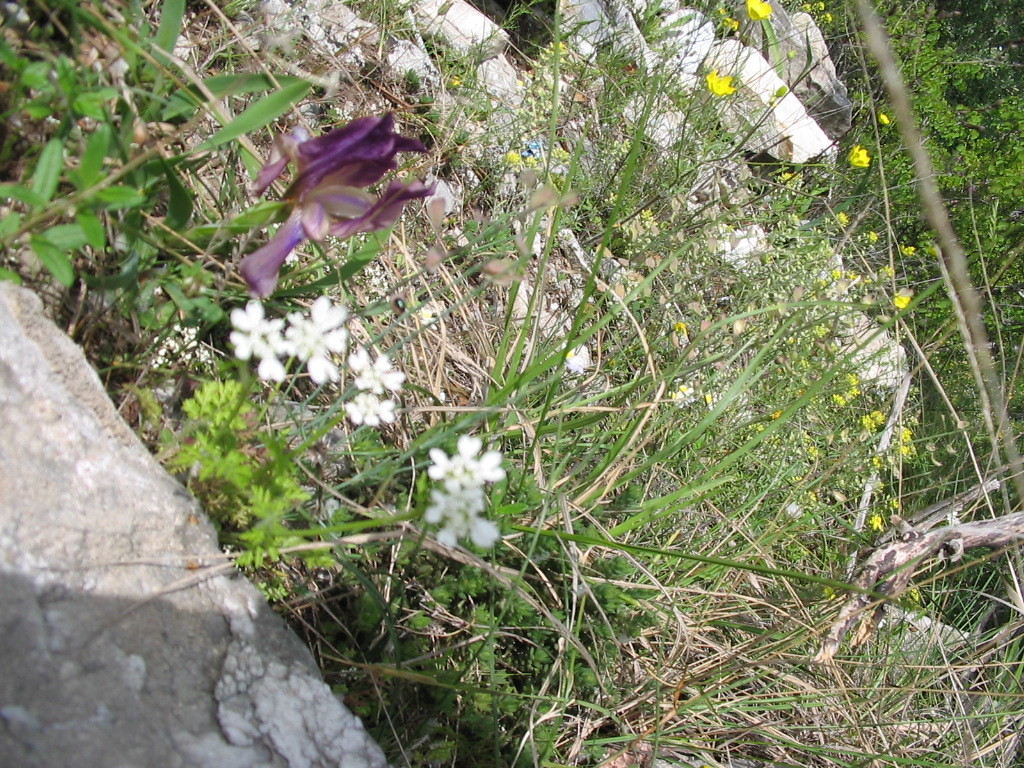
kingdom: Plantae
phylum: Tracheophyta
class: Liliopsida
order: Asparagales
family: Iridaceae
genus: Iris
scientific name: Iris suaveolens
